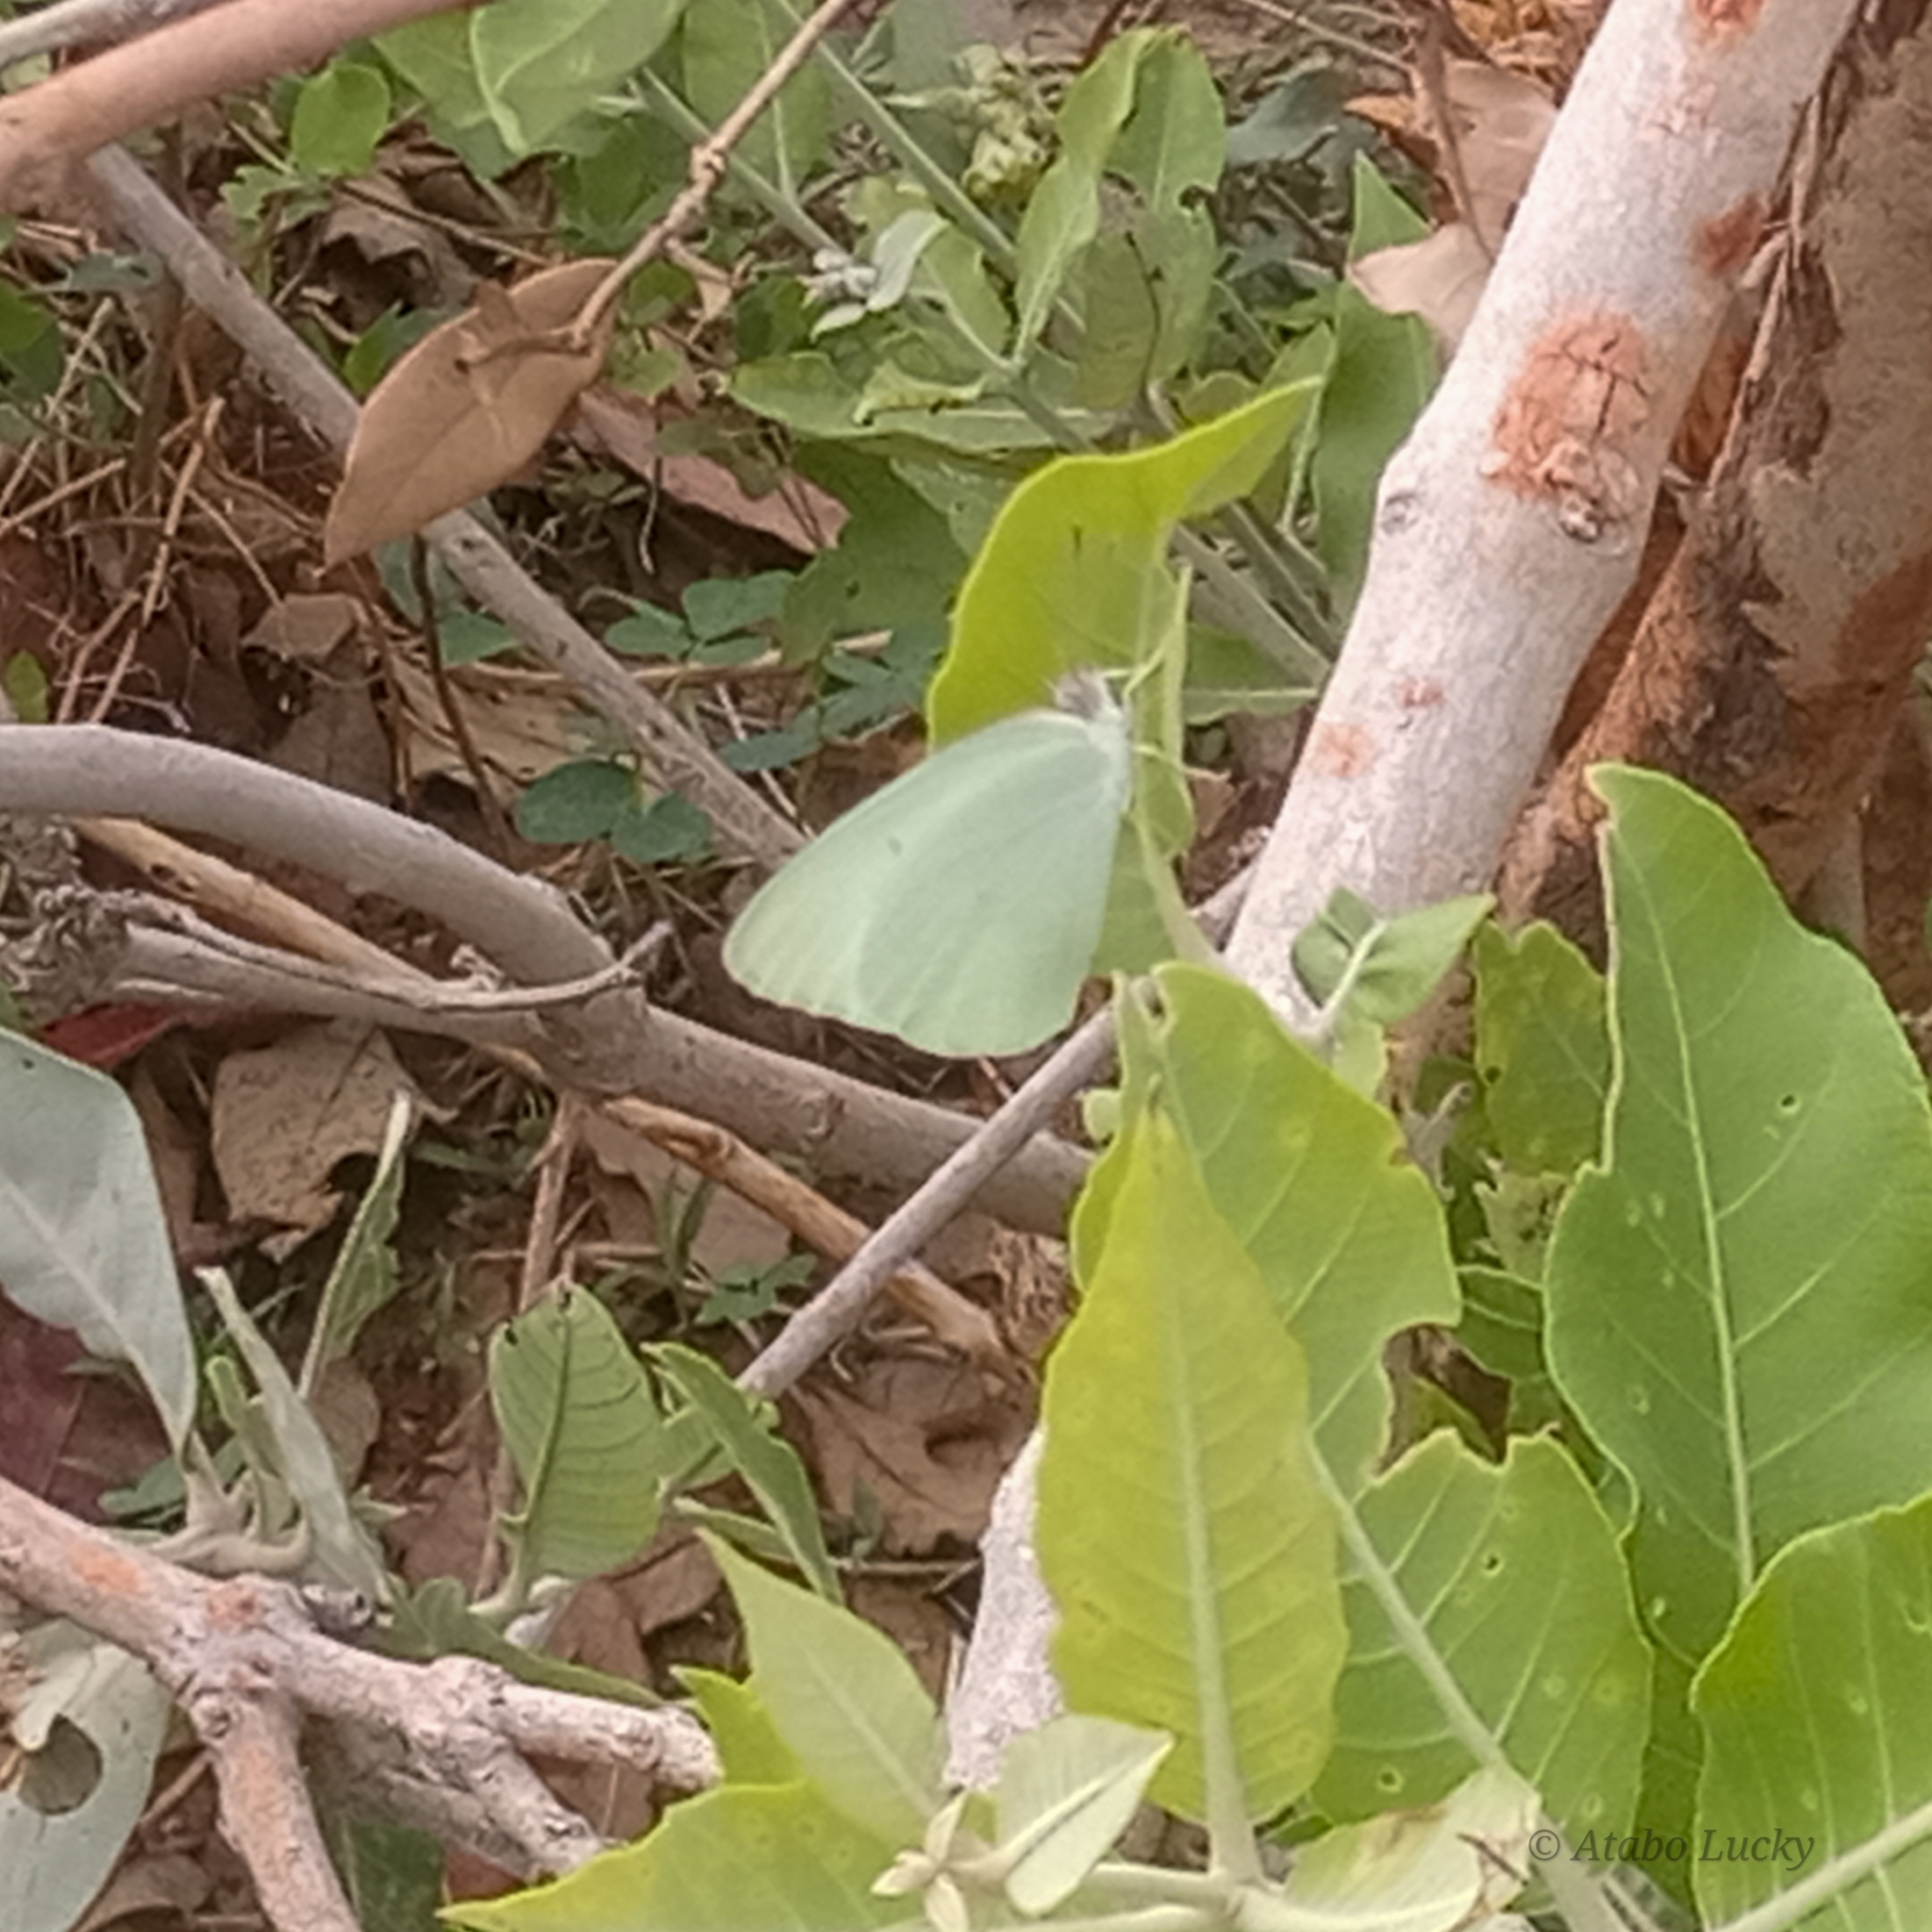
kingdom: Animalia
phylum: Arthropoda
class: Insecta
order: Lepidoptera
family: Pieridae
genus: Catopsilia
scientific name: Catopsilia florella
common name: African migrant
